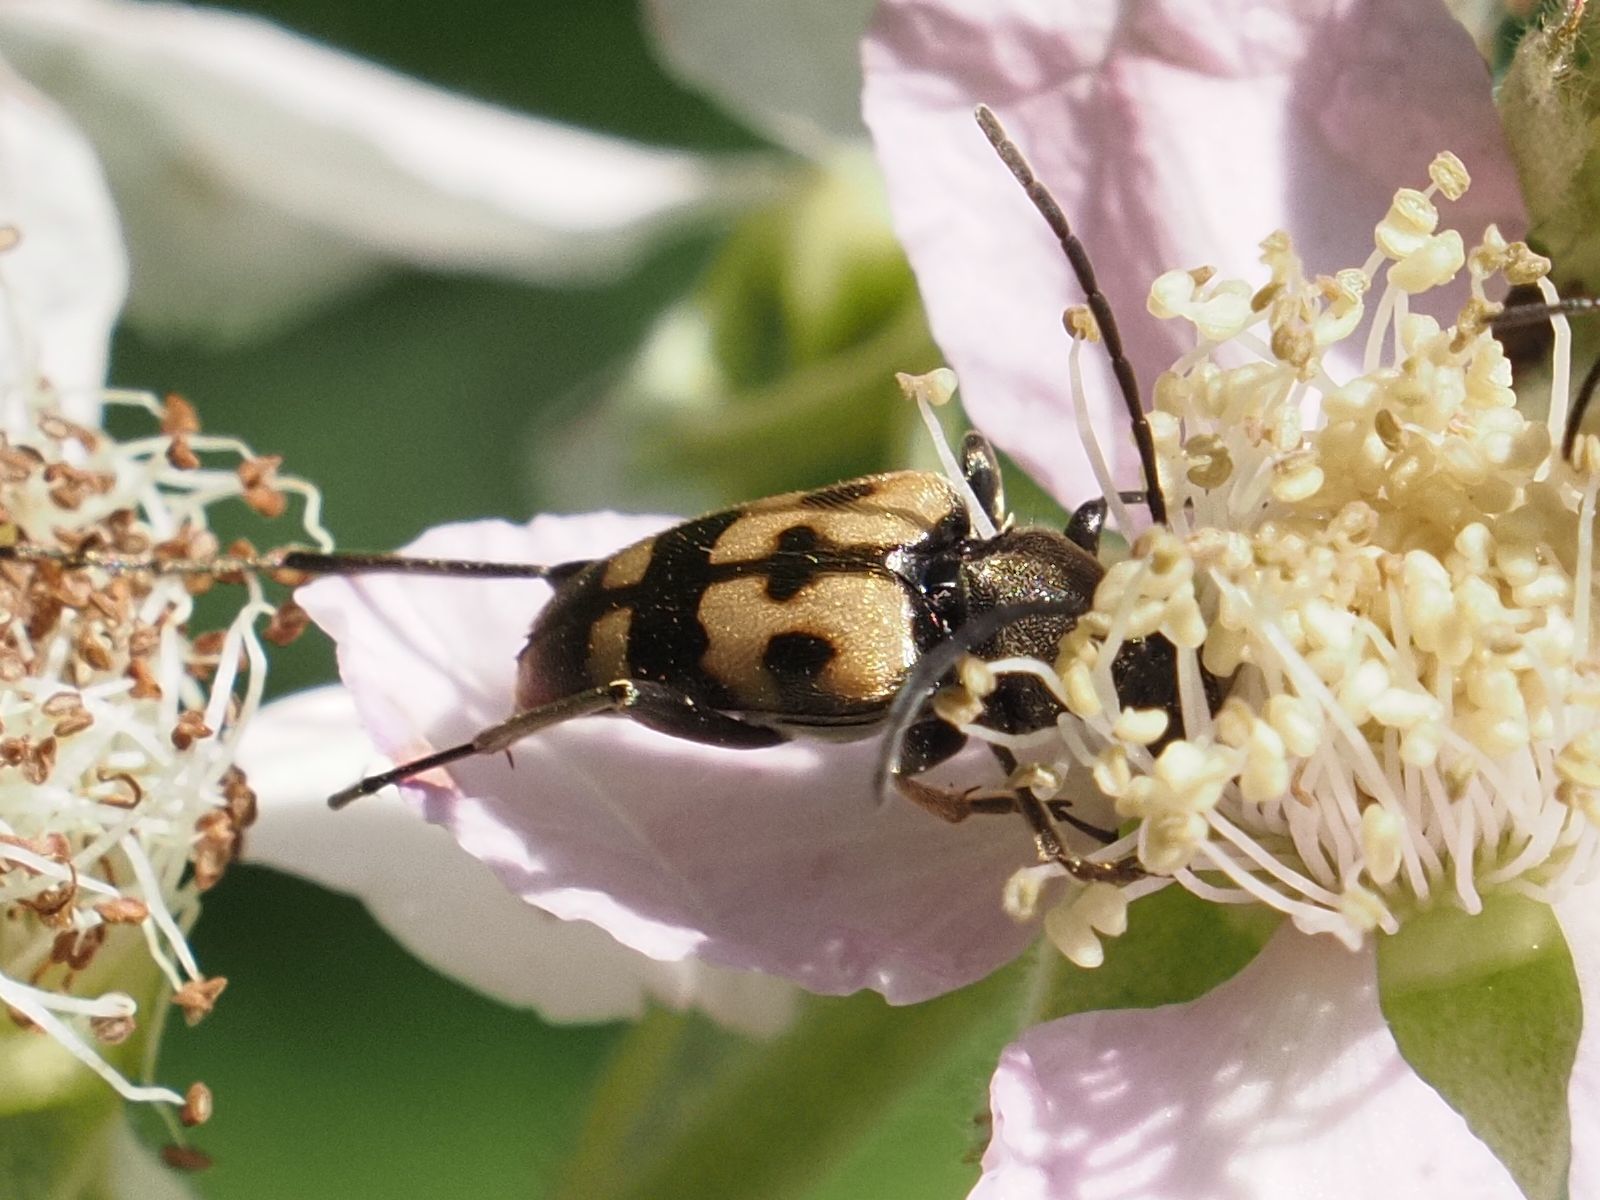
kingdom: Animalia
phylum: Arthropoda
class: Insecta
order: Coleoptera
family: Cerambycidae
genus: Pachytodes
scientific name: Pachytodes
